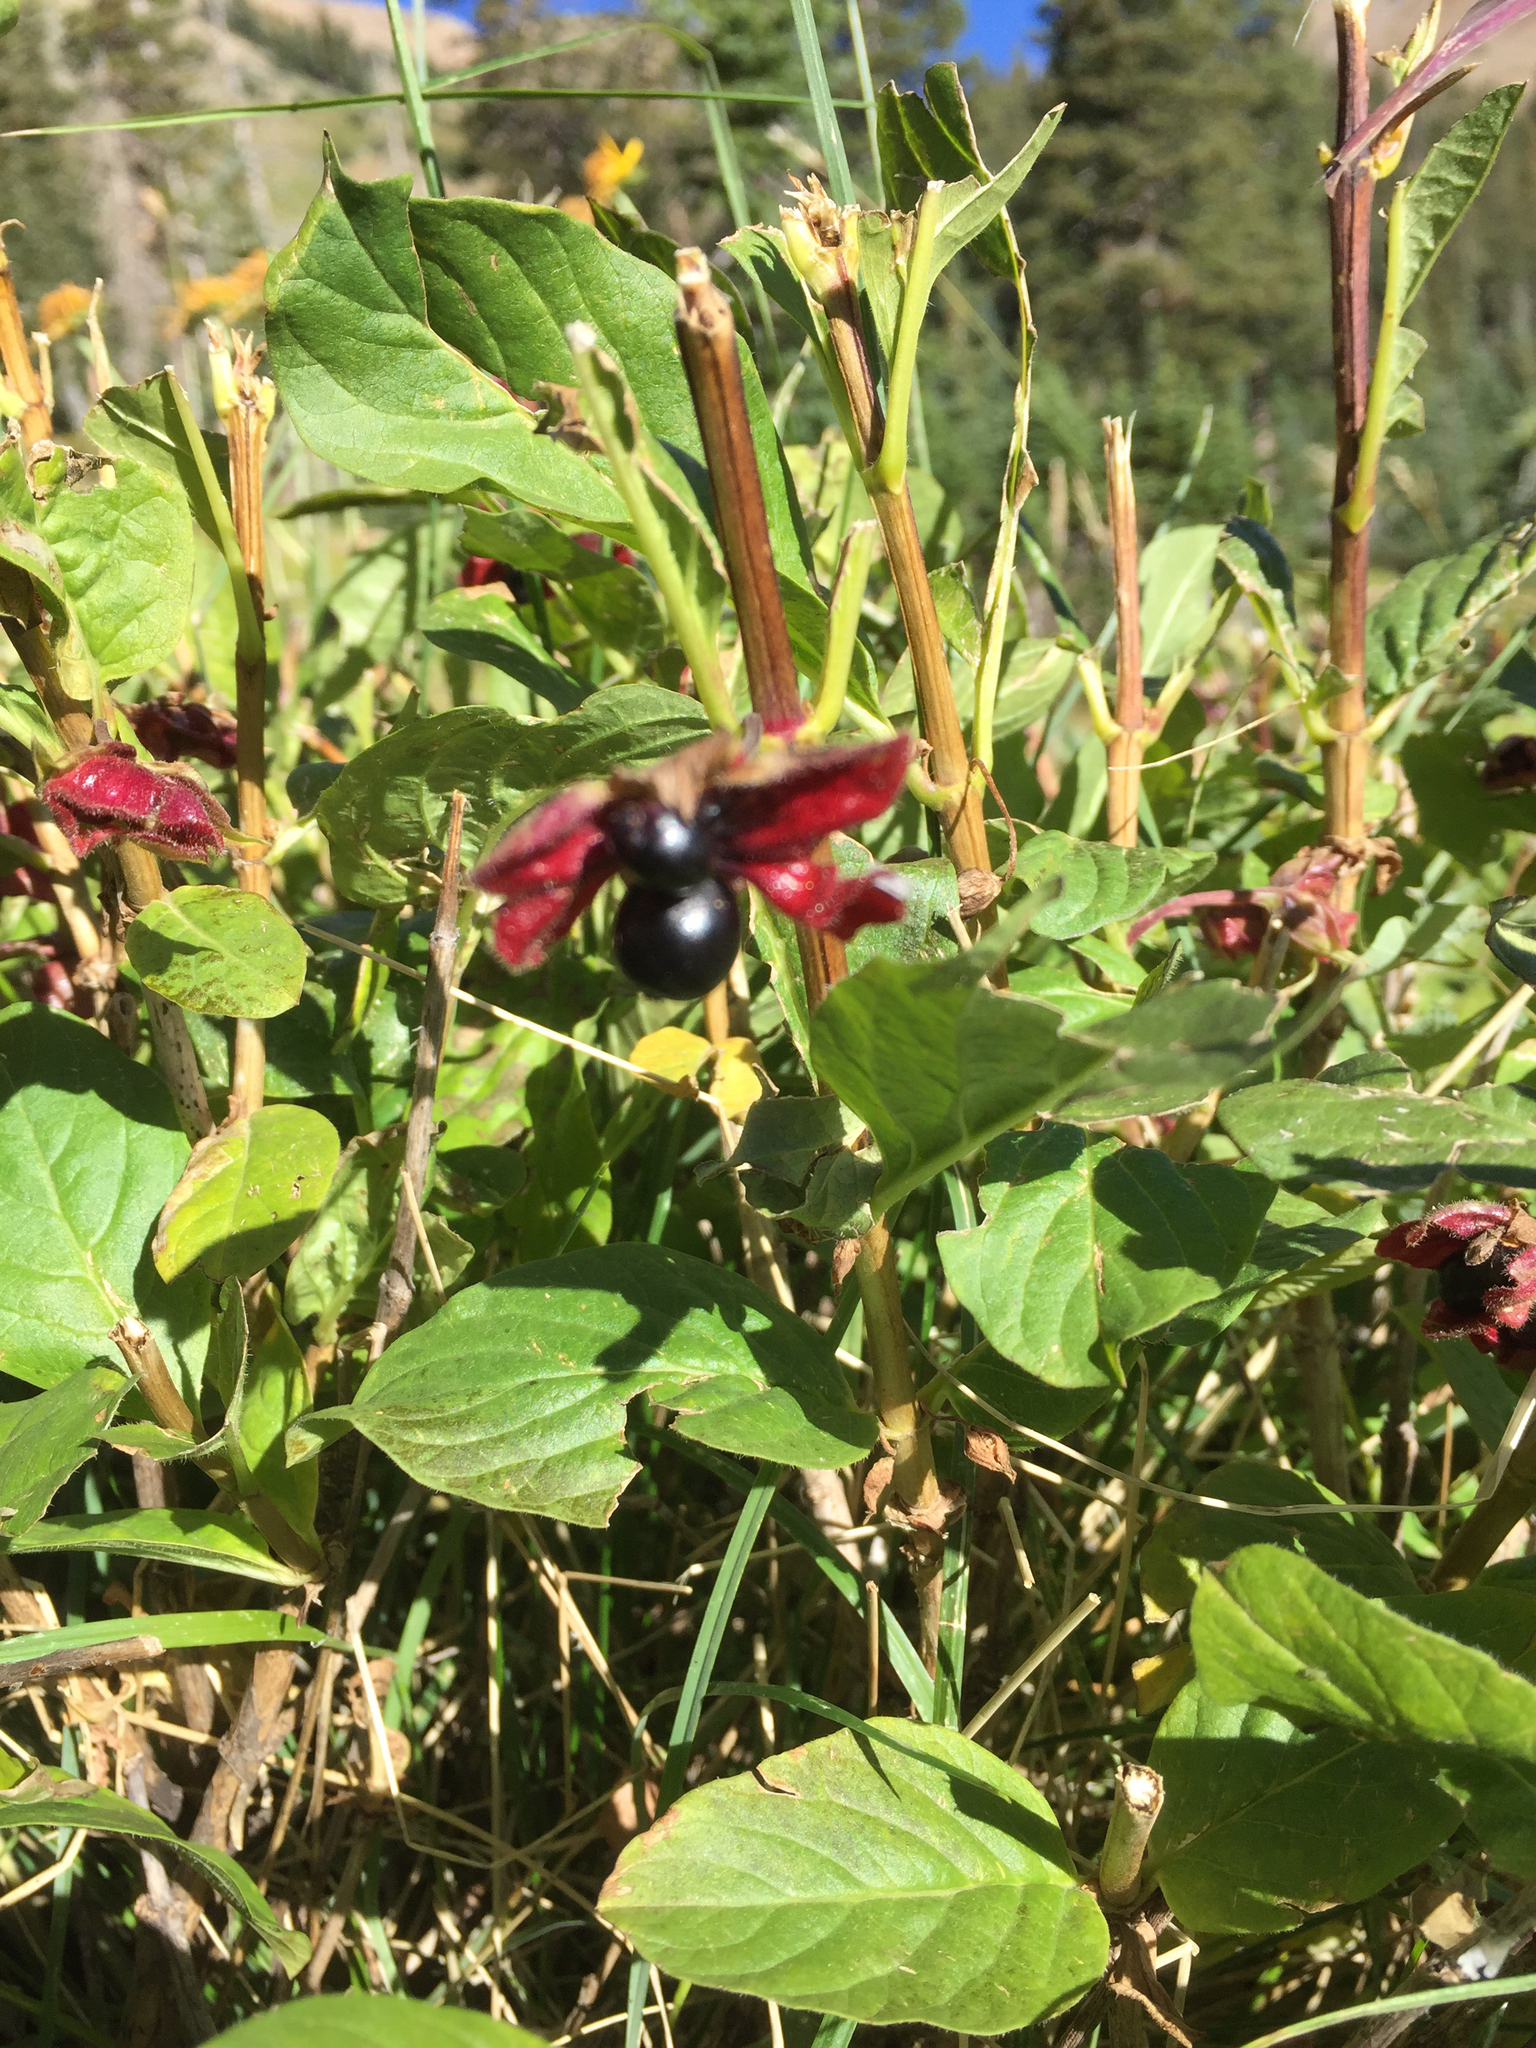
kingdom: Plantae
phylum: Tracheophyta
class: Magnoliopsida
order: Dipsacales
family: Caprifoliaceae
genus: Lonicera
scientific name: Lonicera involucrata
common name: Californian honeysuckle
